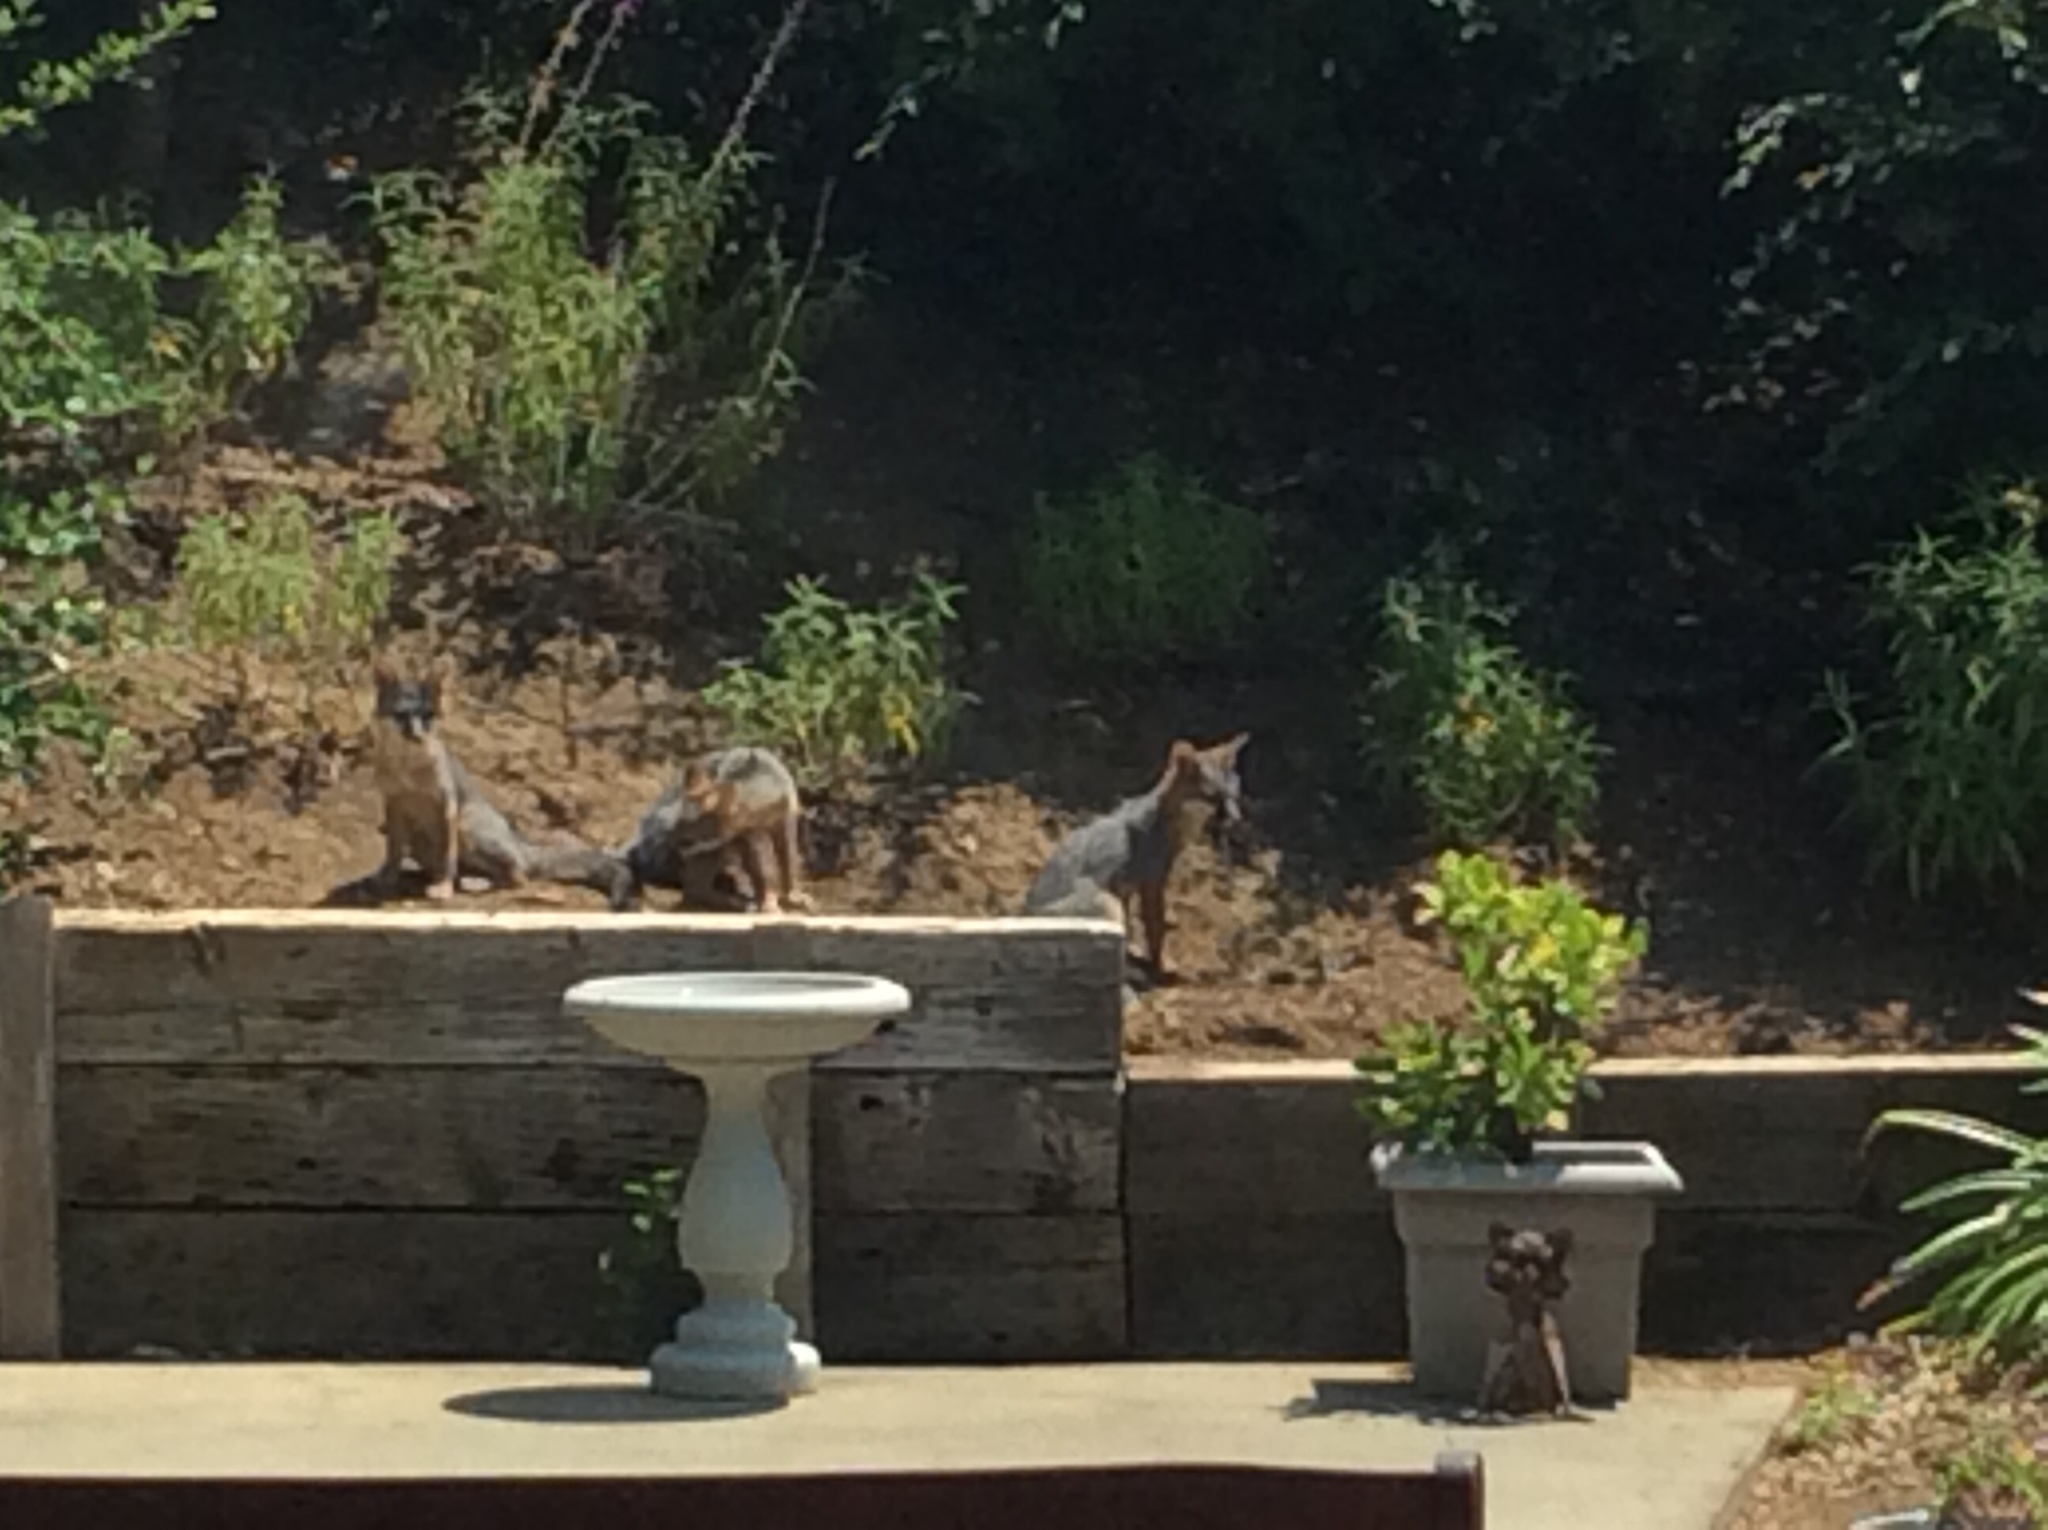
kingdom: Animalia
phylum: Chordata
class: Mammalia
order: Carnivora
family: Canidae
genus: Urocyon
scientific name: Urocyon cinereoargenteus
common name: Gray fox
